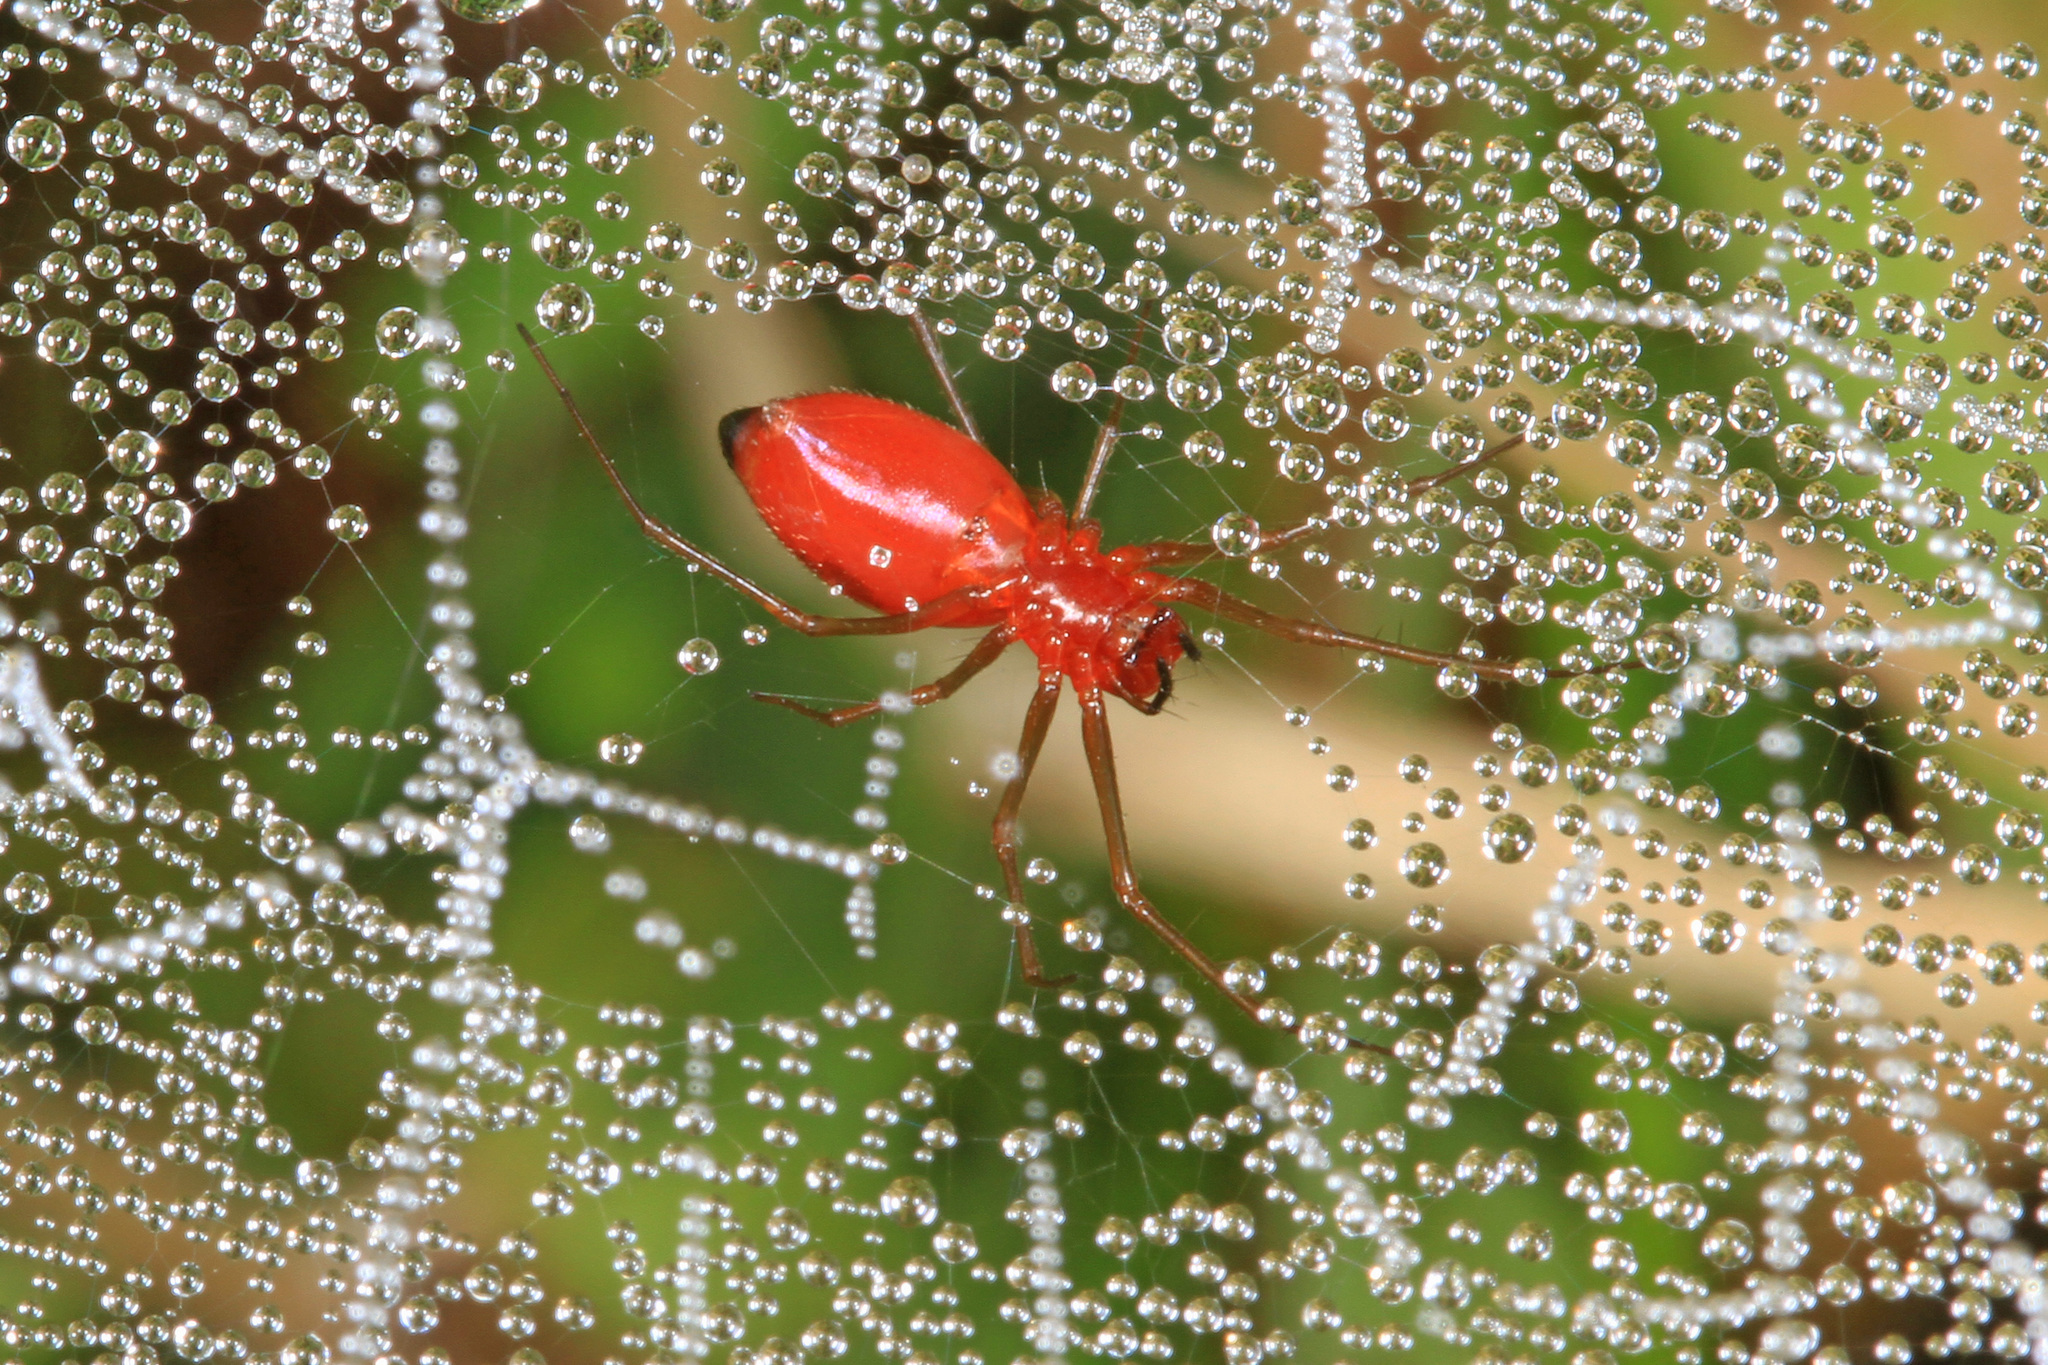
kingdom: Animalia
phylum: Arthropoda
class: Arachnida
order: Araneae
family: Linyphiidae
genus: Florinda
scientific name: Florinda coccinea
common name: Black-tailed red sheetweaver
